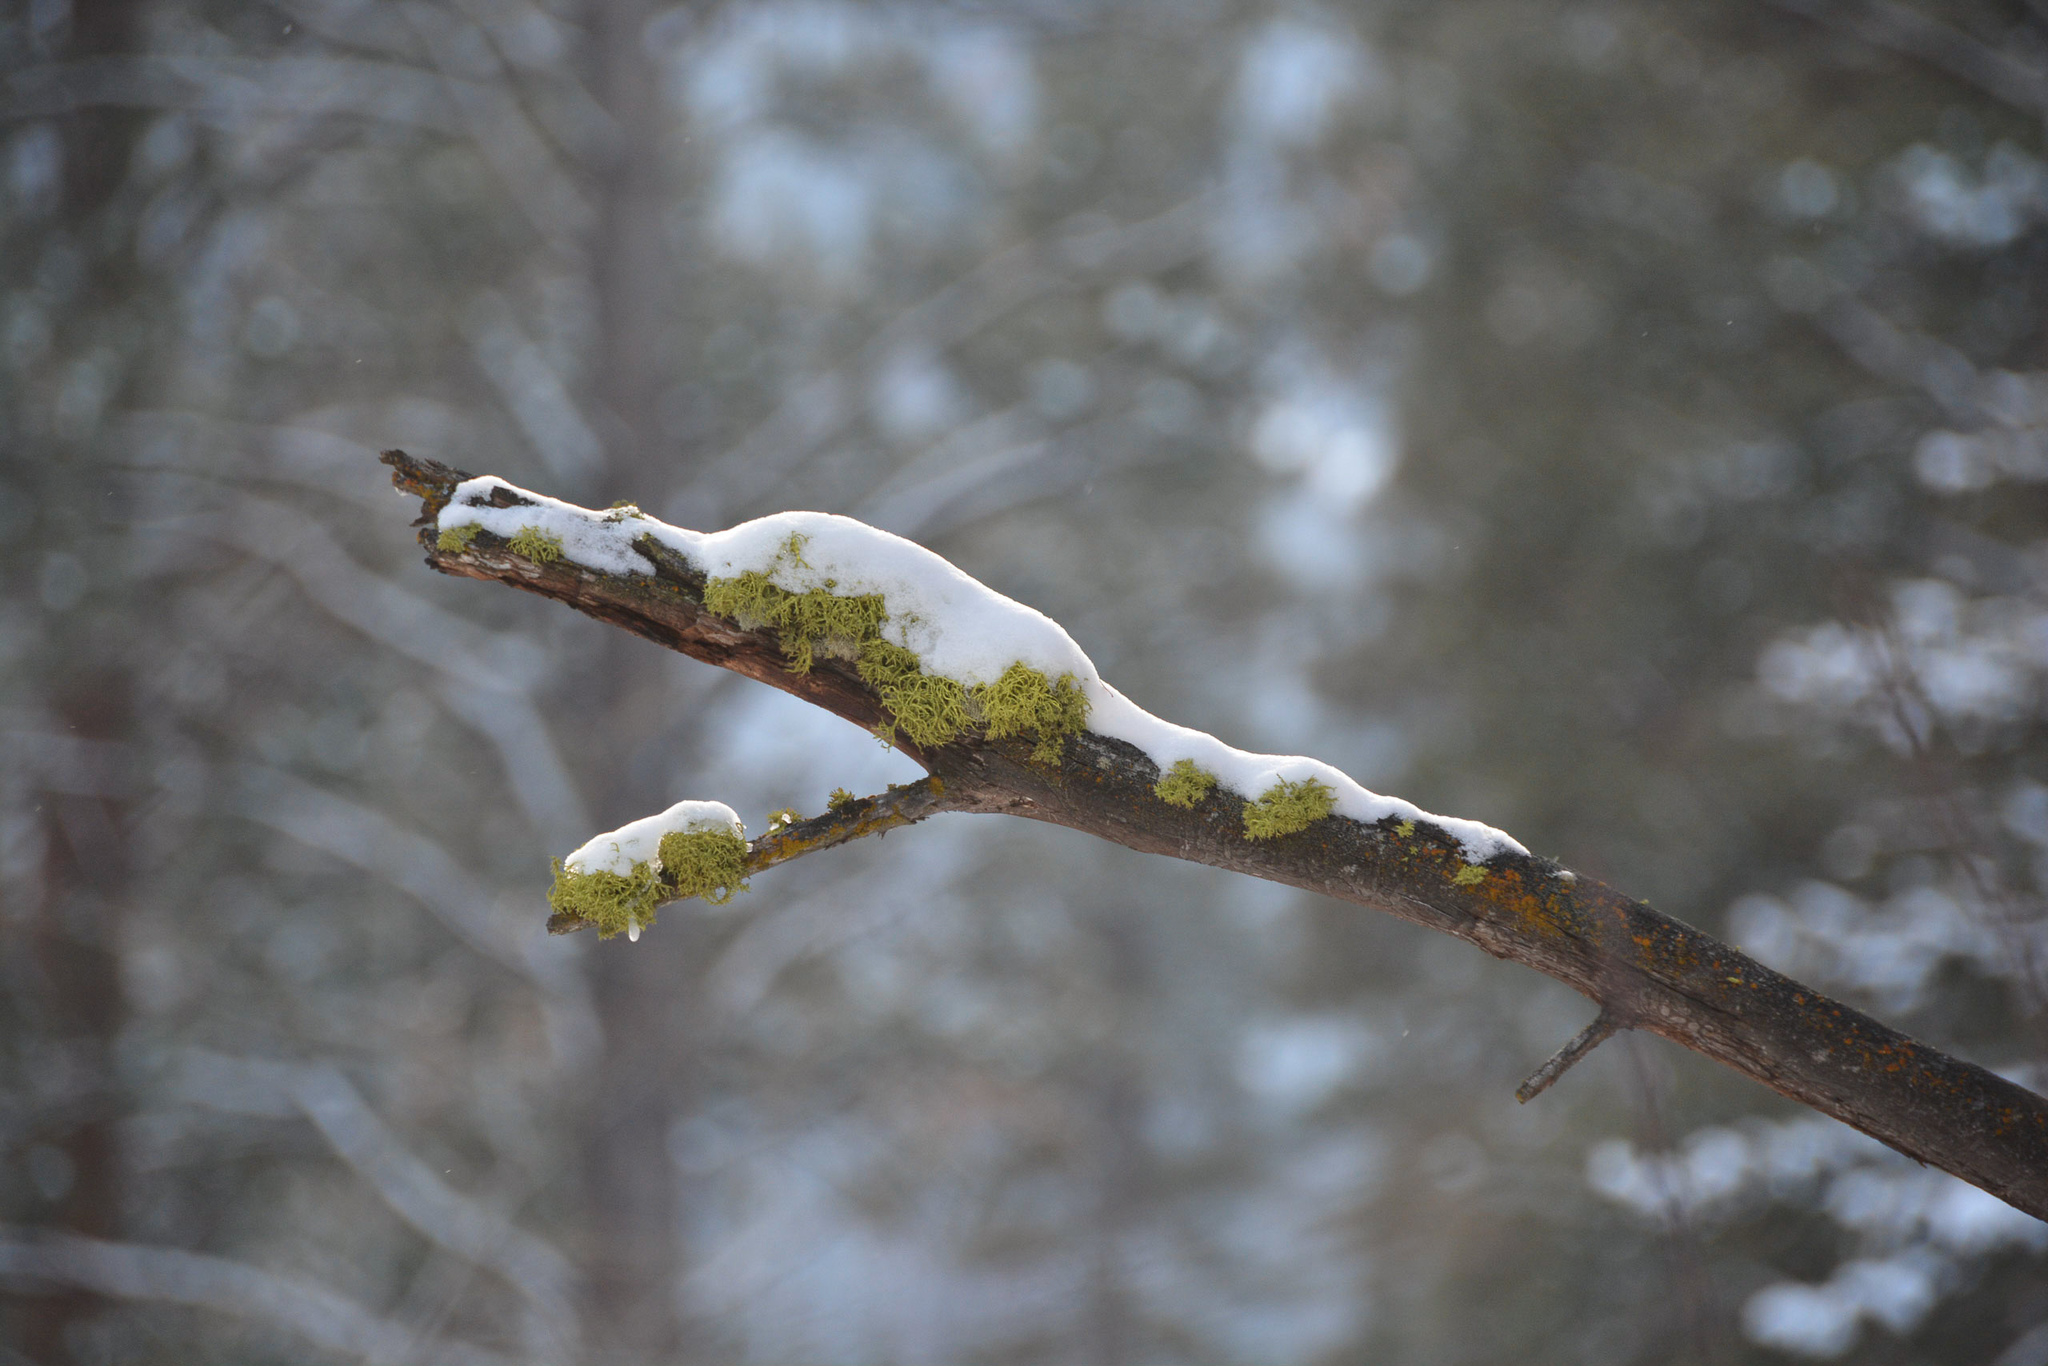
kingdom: Fungi
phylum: Ascomycota
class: Lecanoromycetes
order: Lecanorales
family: Parmeliaceae
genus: Letharia
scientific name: Letharia vulpina
